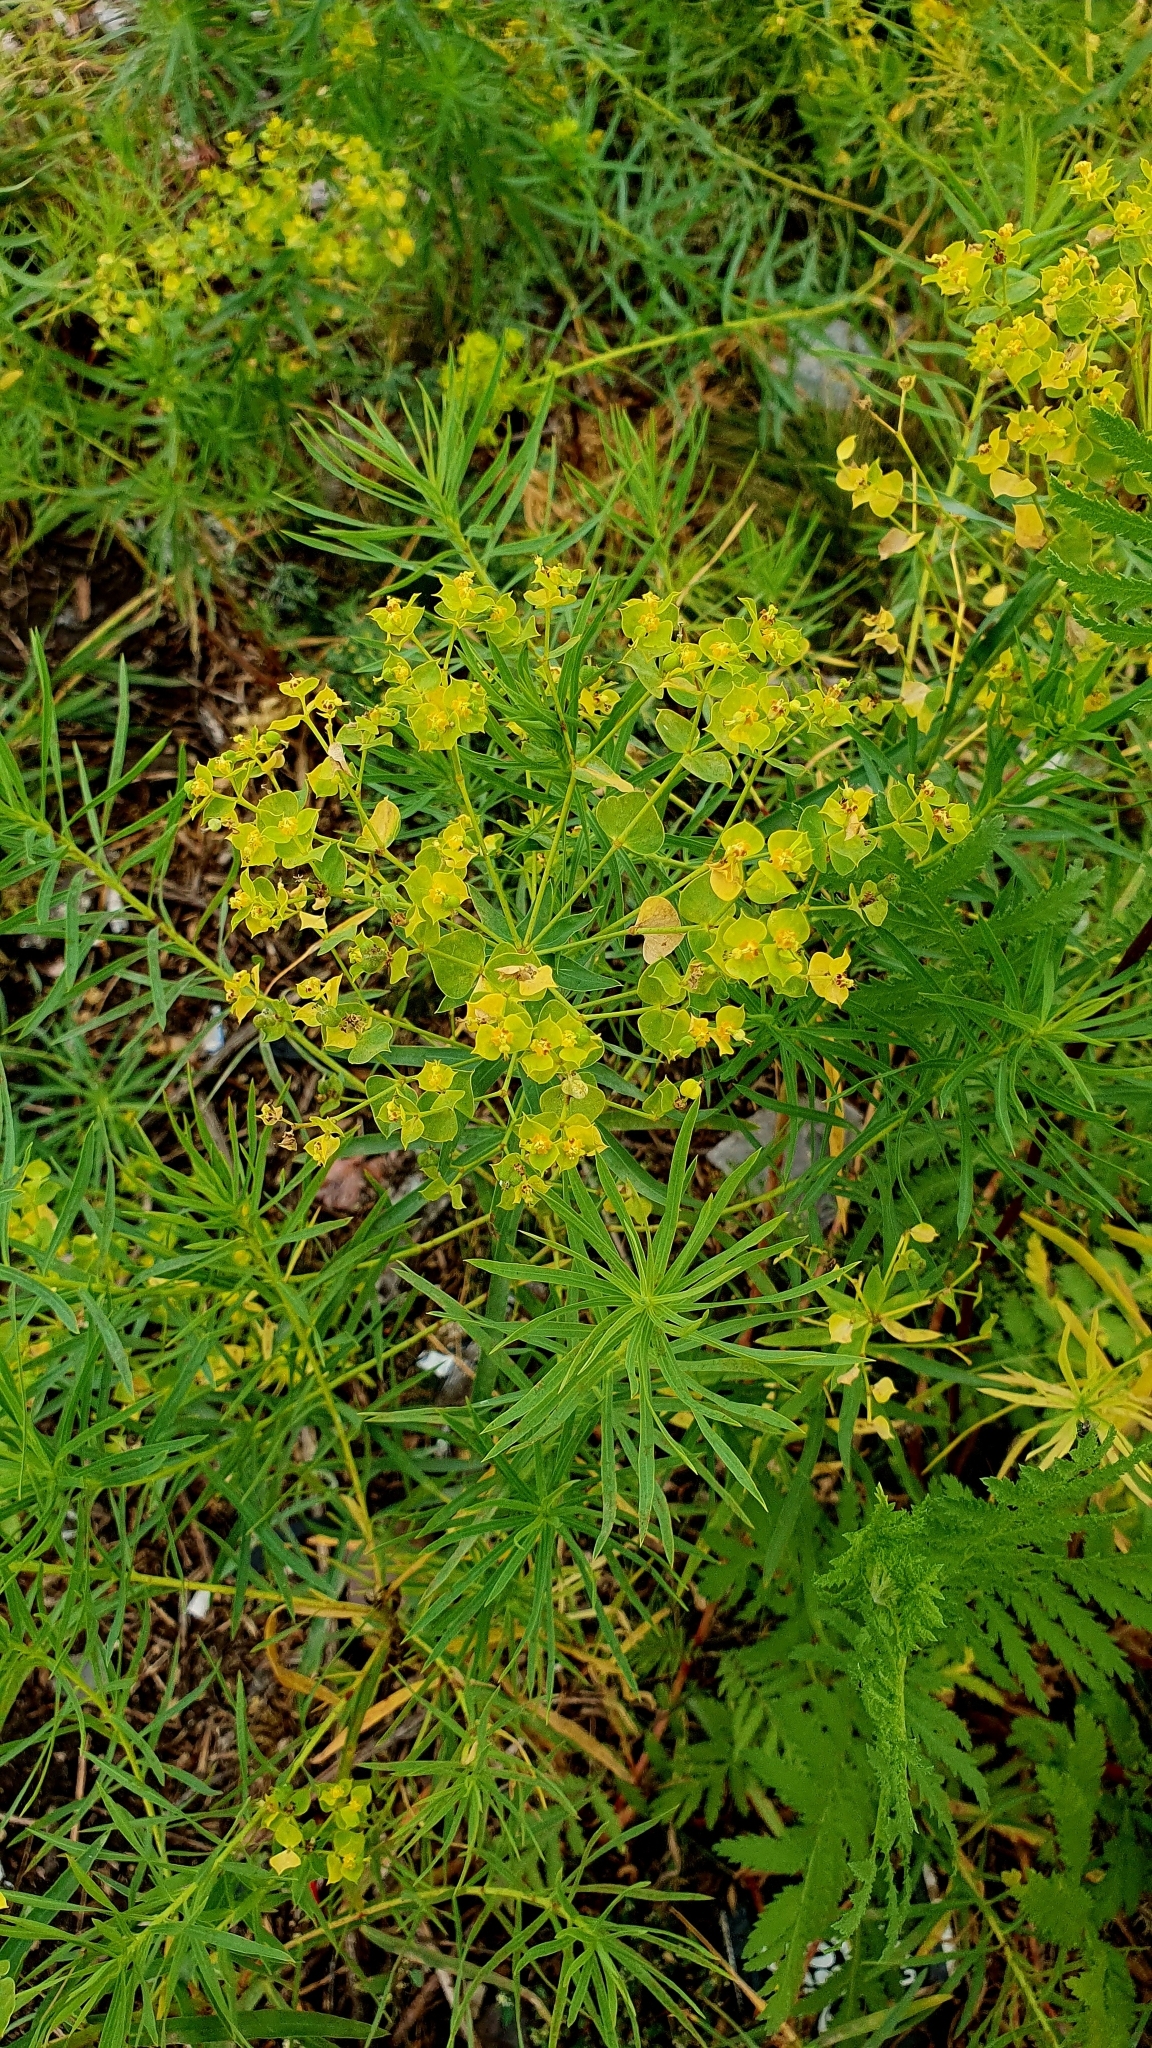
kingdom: Plantae
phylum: Tracheophyta
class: Magnoliopsida
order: Malpighiales
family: Euphorbiaceae
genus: Euphorbia
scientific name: Euphorbia virgata
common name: Leafy spurge
